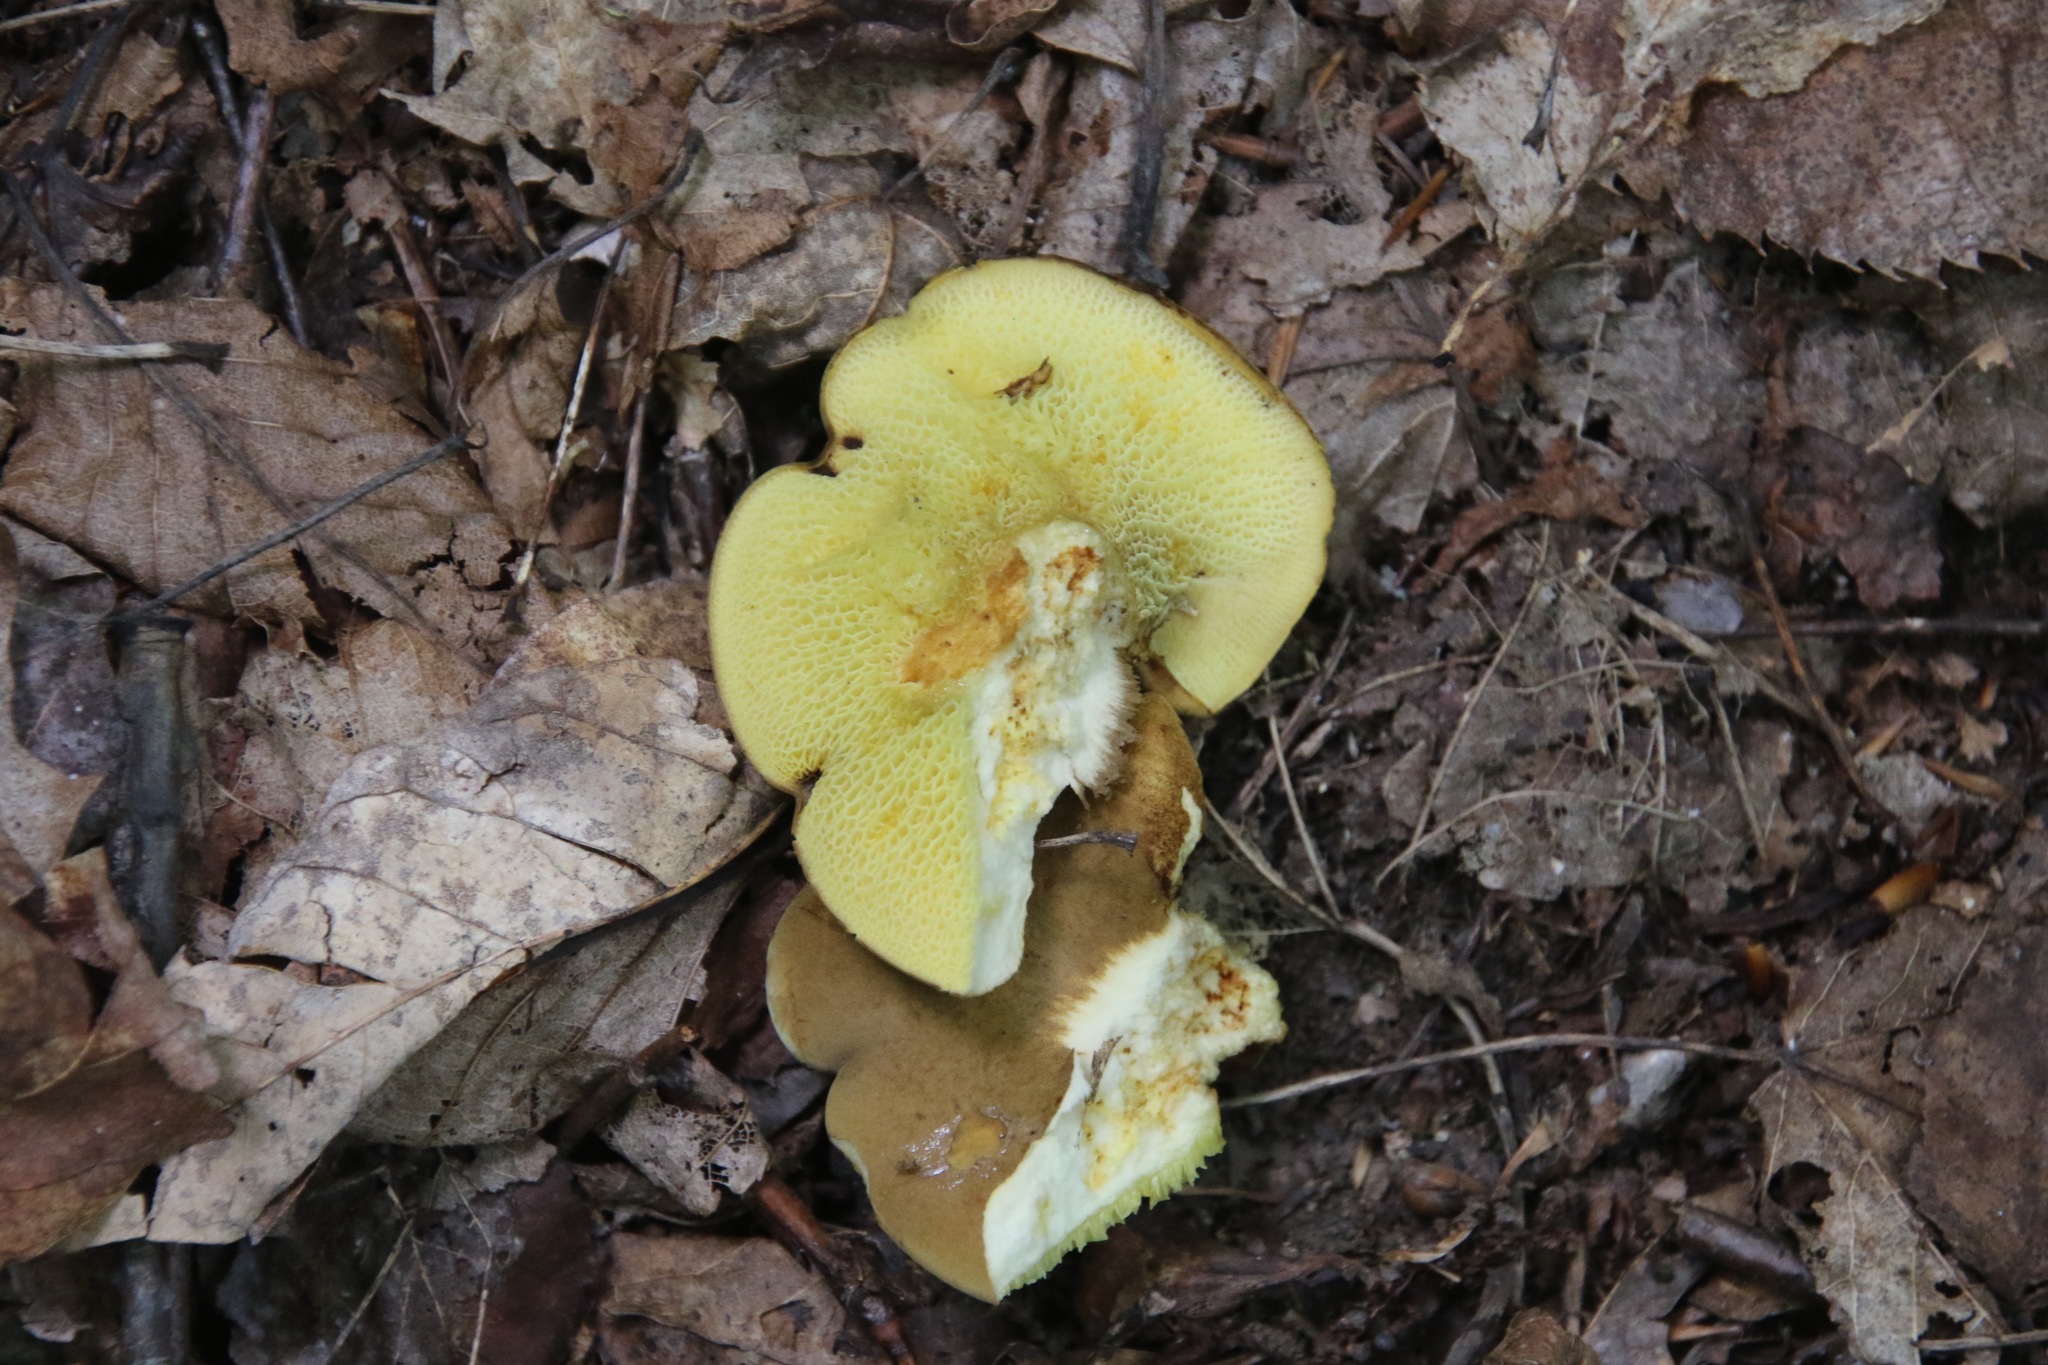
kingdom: Fungi
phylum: Basidiomycota
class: Agaricomycetes
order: Boletales
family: Boletinellaceae
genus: Boletinellus
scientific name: Boletinellus merulioides
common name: Ash tree bolete
